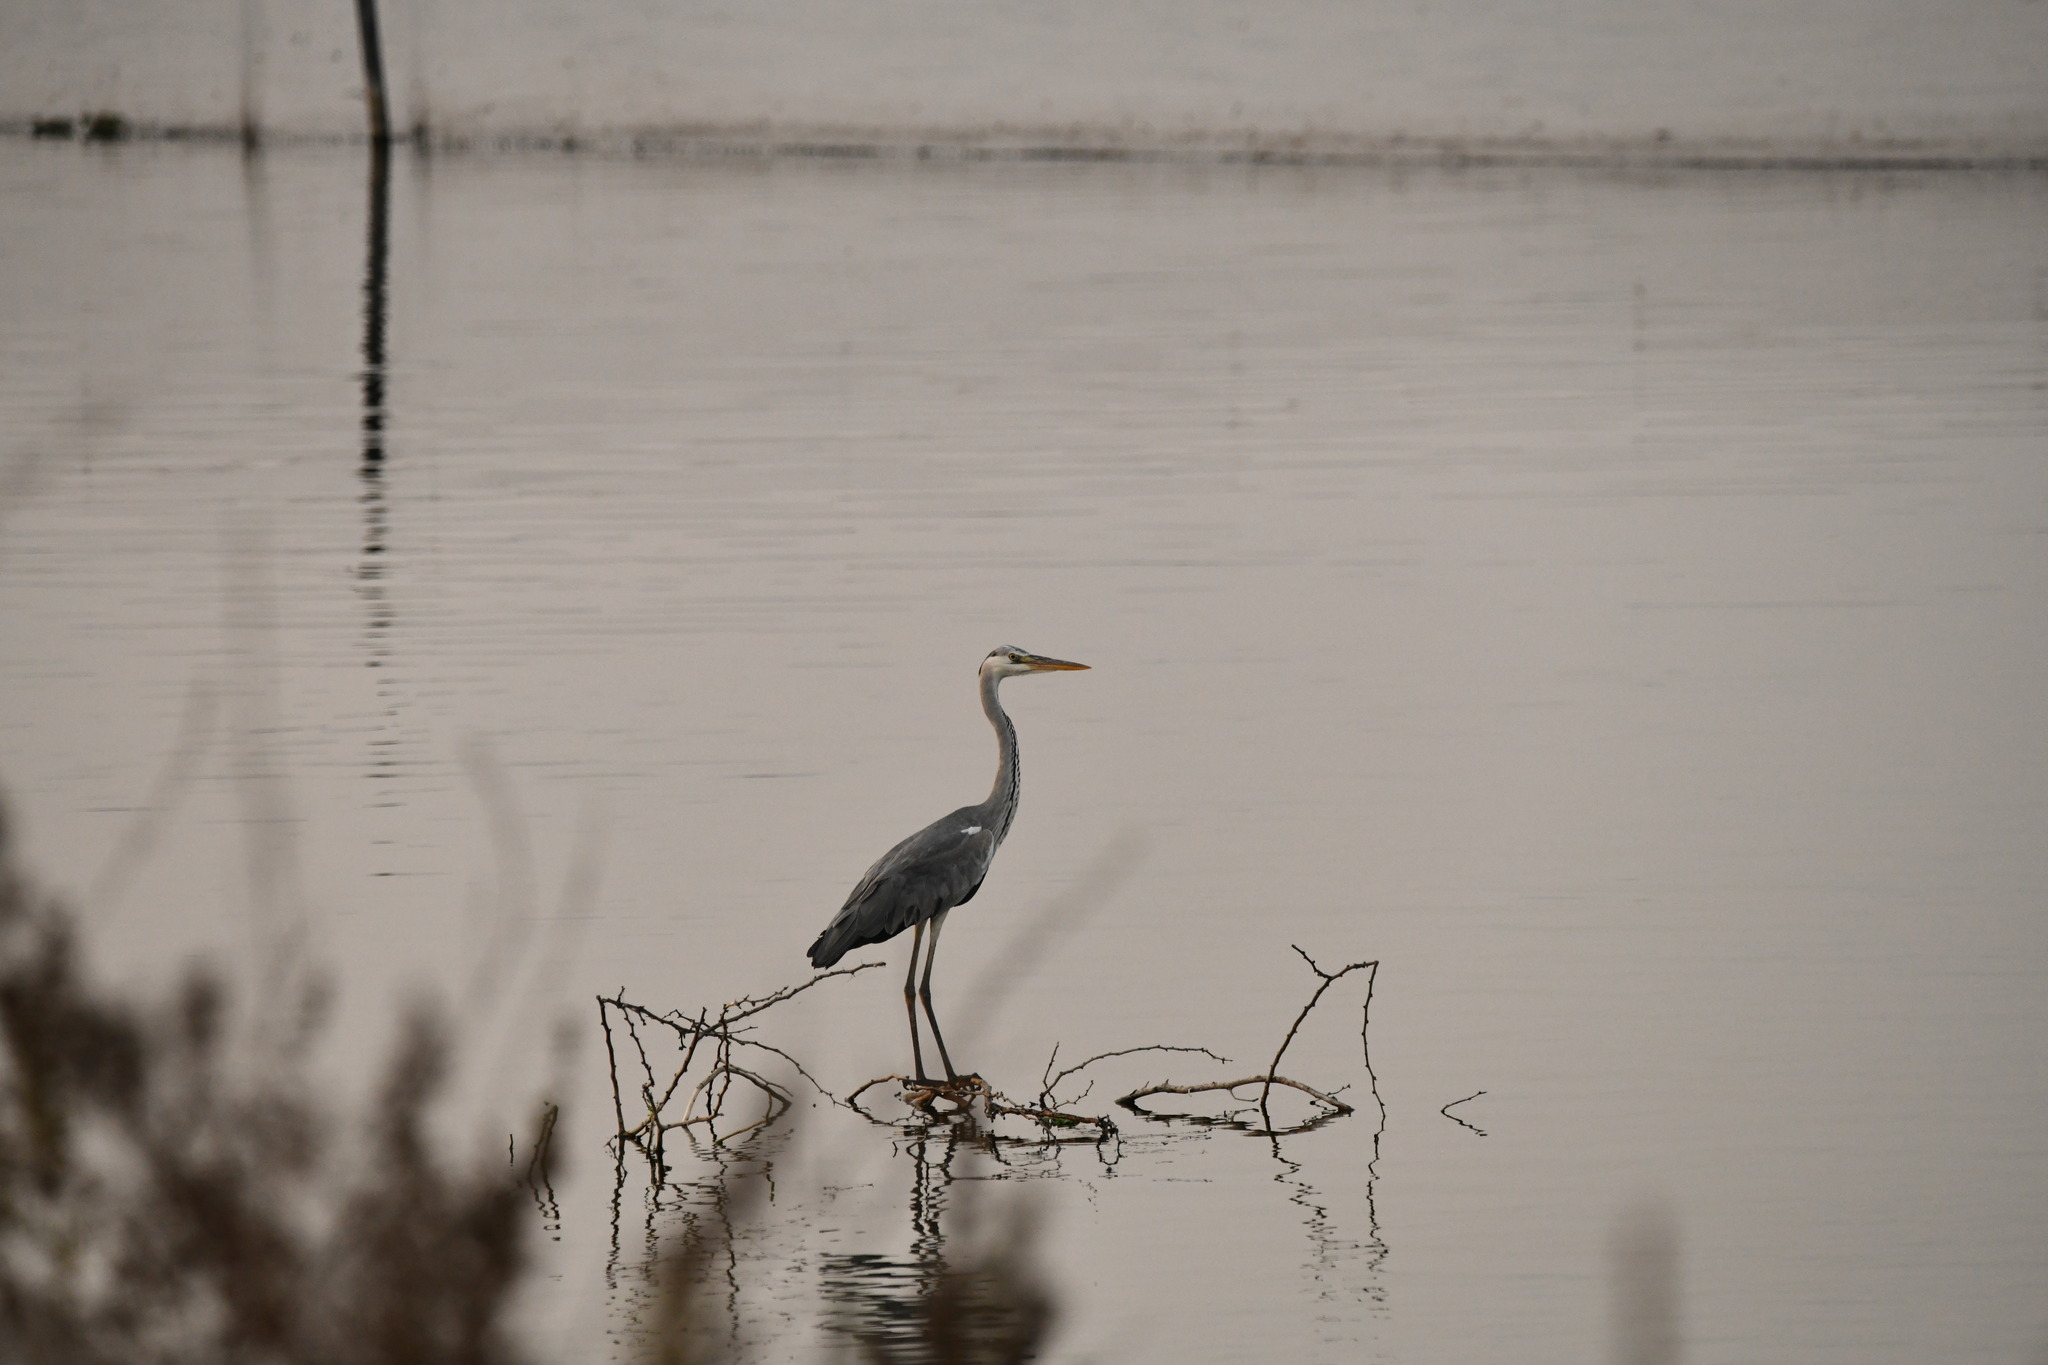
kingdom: Animalia
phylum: Chordata
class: Aves
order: Pelecaniformes
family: Ardeidae
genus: Ardea
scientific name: Ardea cinerea
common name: Grey heron
